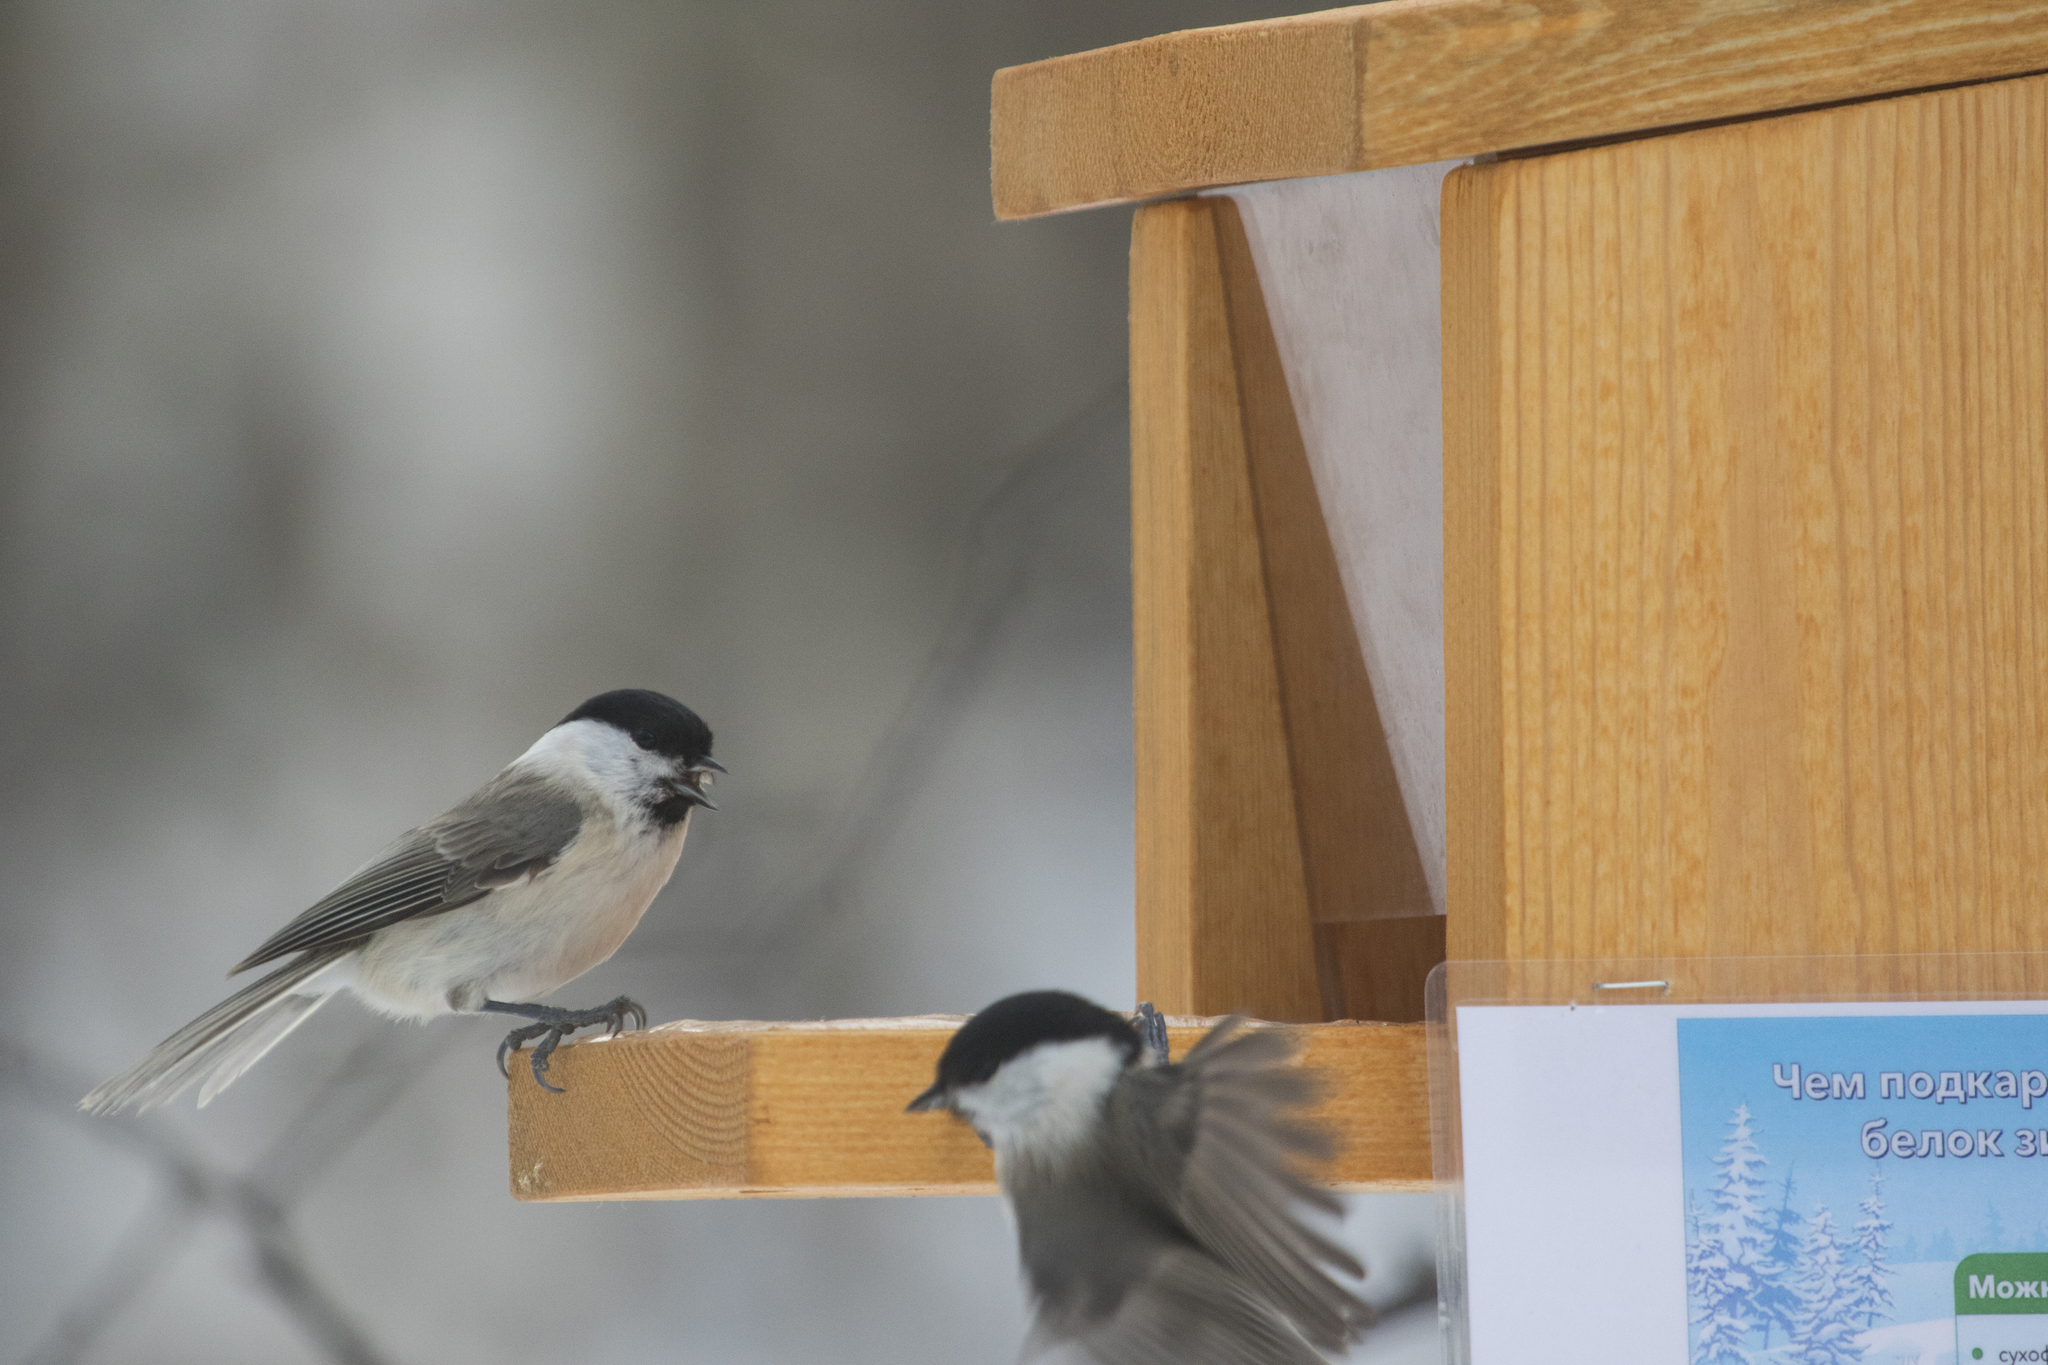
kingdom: Animalia
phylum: Chordata
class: Aves
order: Passeriformes
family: Paridae
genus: Poecile
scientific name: Poecile palustris
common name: Marsh tit
